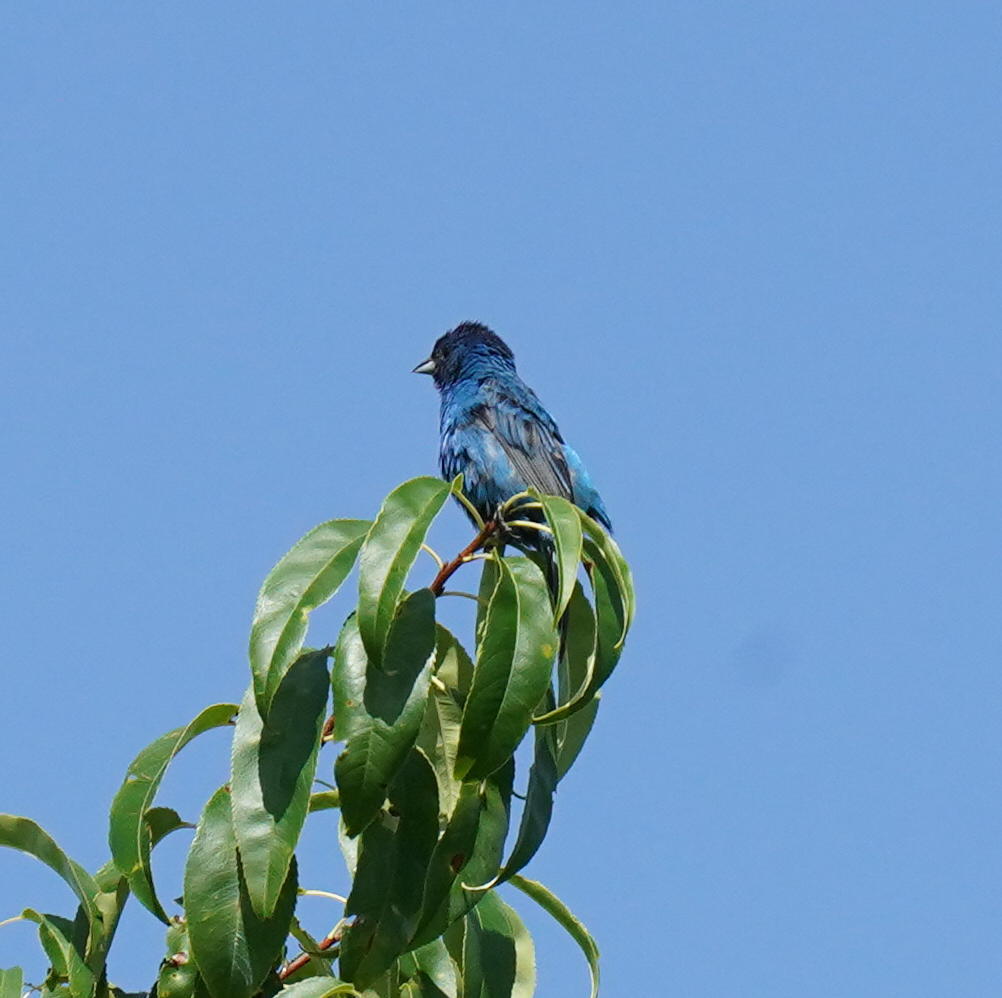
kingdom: Animalia
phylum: Chordata
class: Aves
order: Passeriformes
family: Cardinalidae
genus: Passerina
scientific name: Passerina cyanea
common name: Indigo bunting
